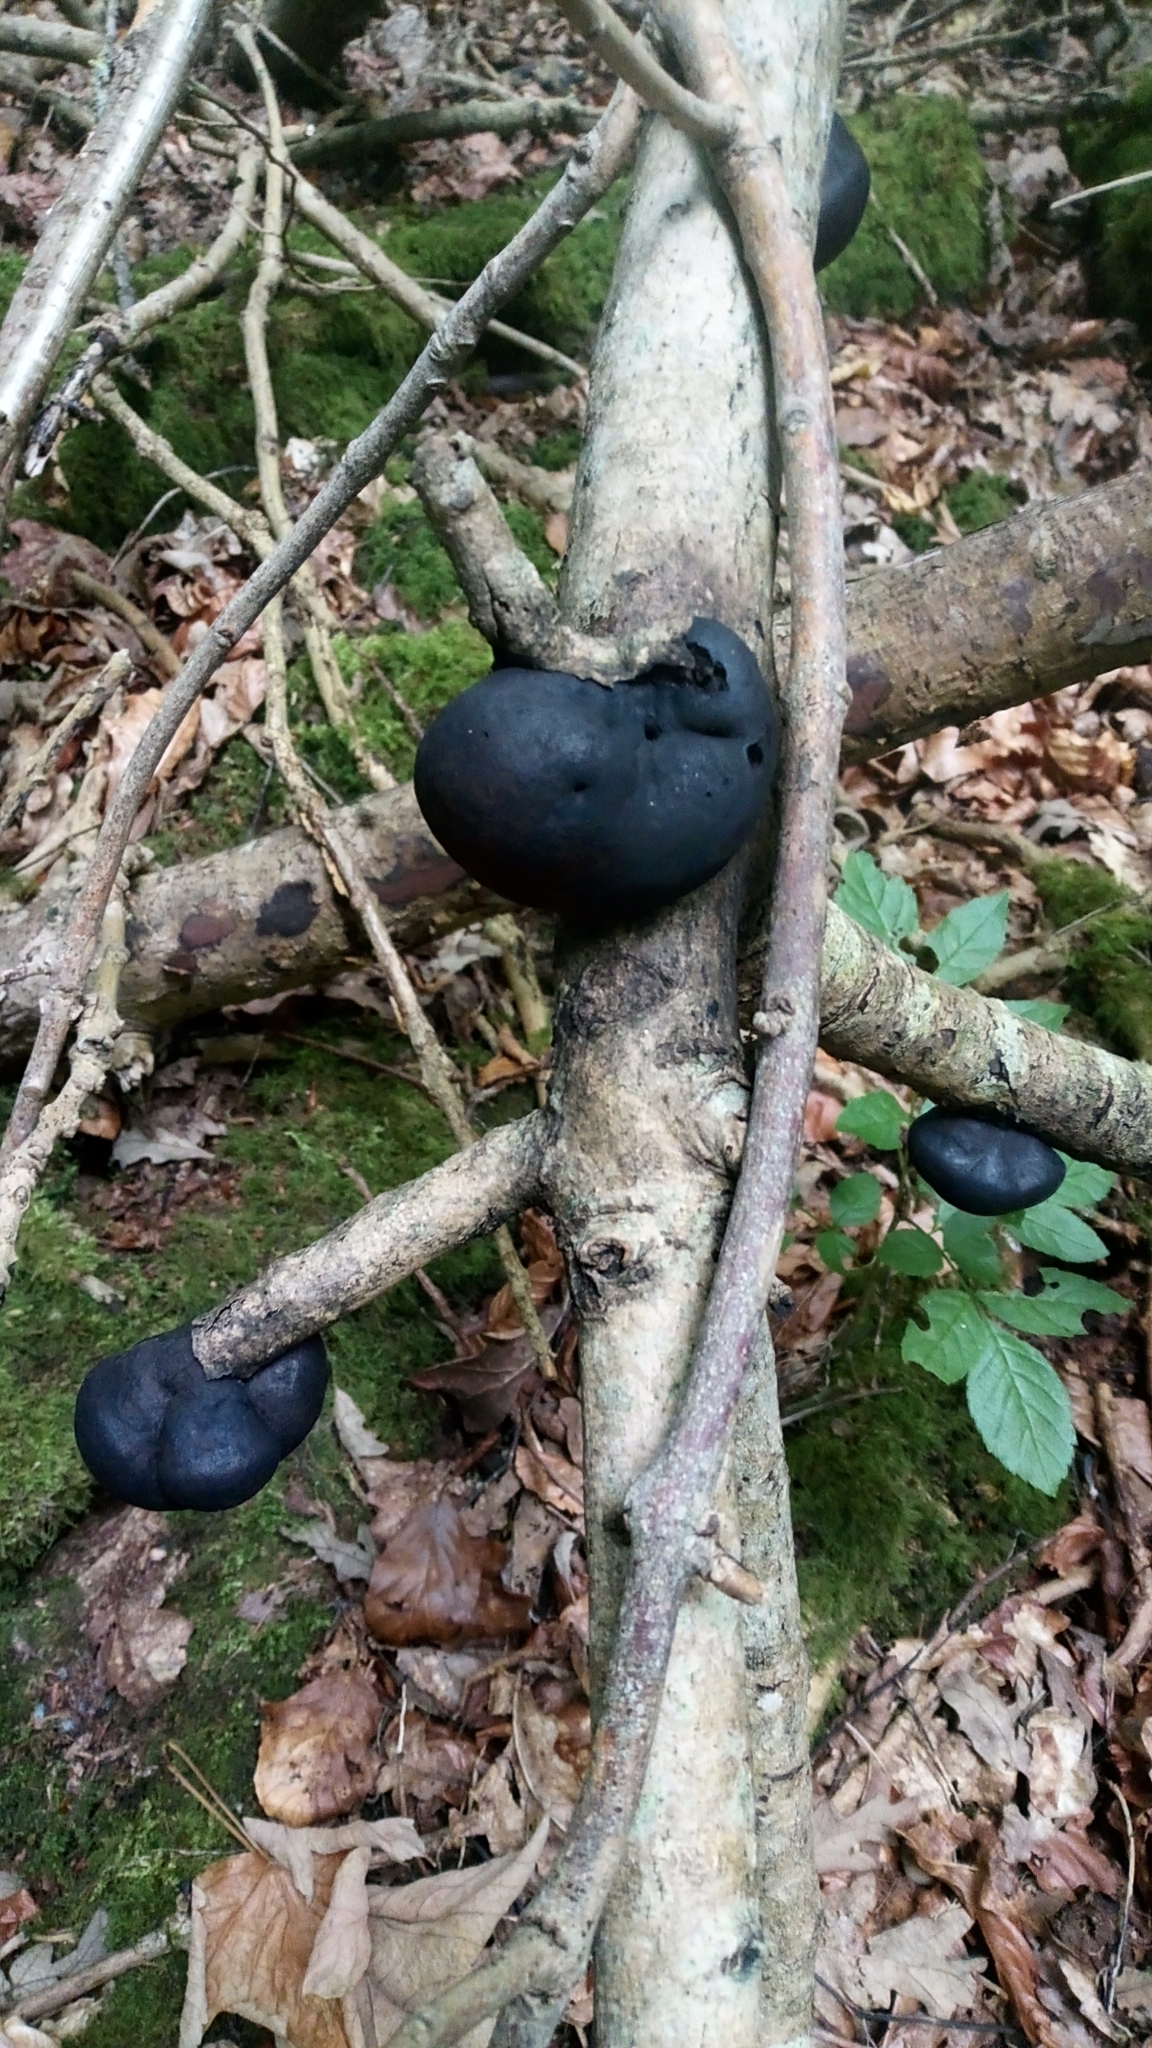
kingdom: Fungi
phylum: Ascomycota
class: Sordariomycetes
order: Xylariales
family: Hypoxylaceae
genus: Daldinia
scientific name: Daldinia concentrica
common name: Cramp balls
